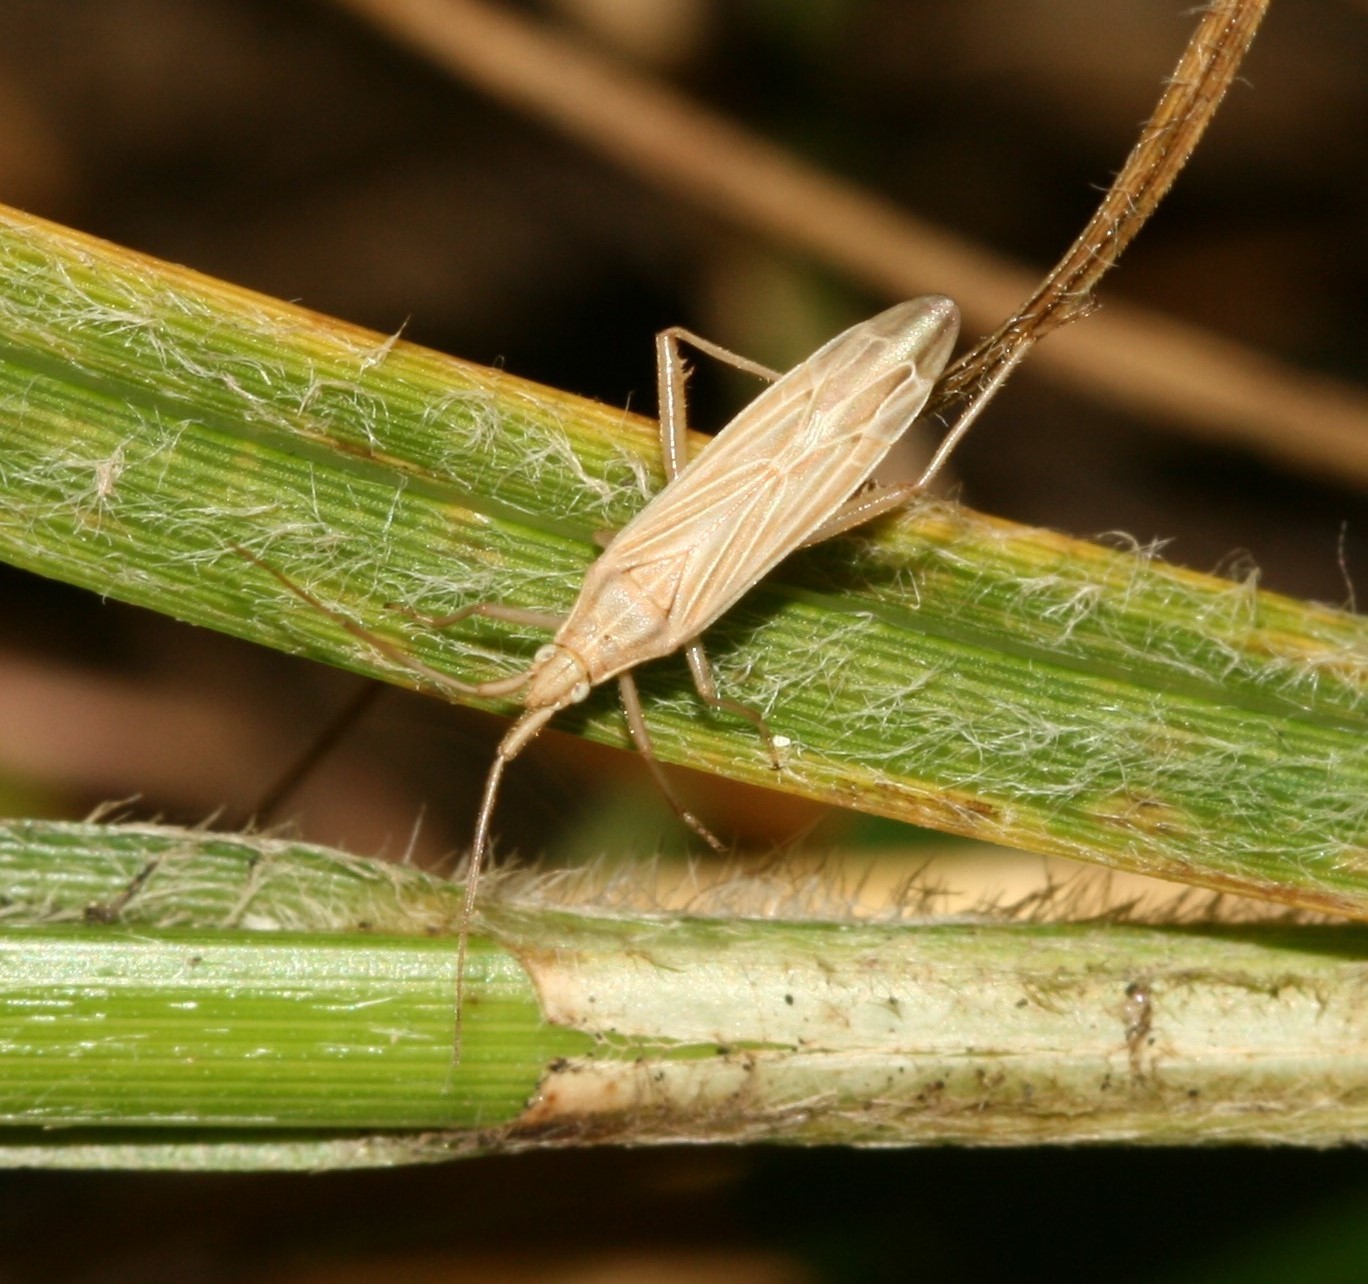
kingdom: Animalia
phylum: Arthropoda
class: Insecta
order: Hemiptera
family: Miridae
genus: Stenodema
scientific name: Stenodema calcarata
